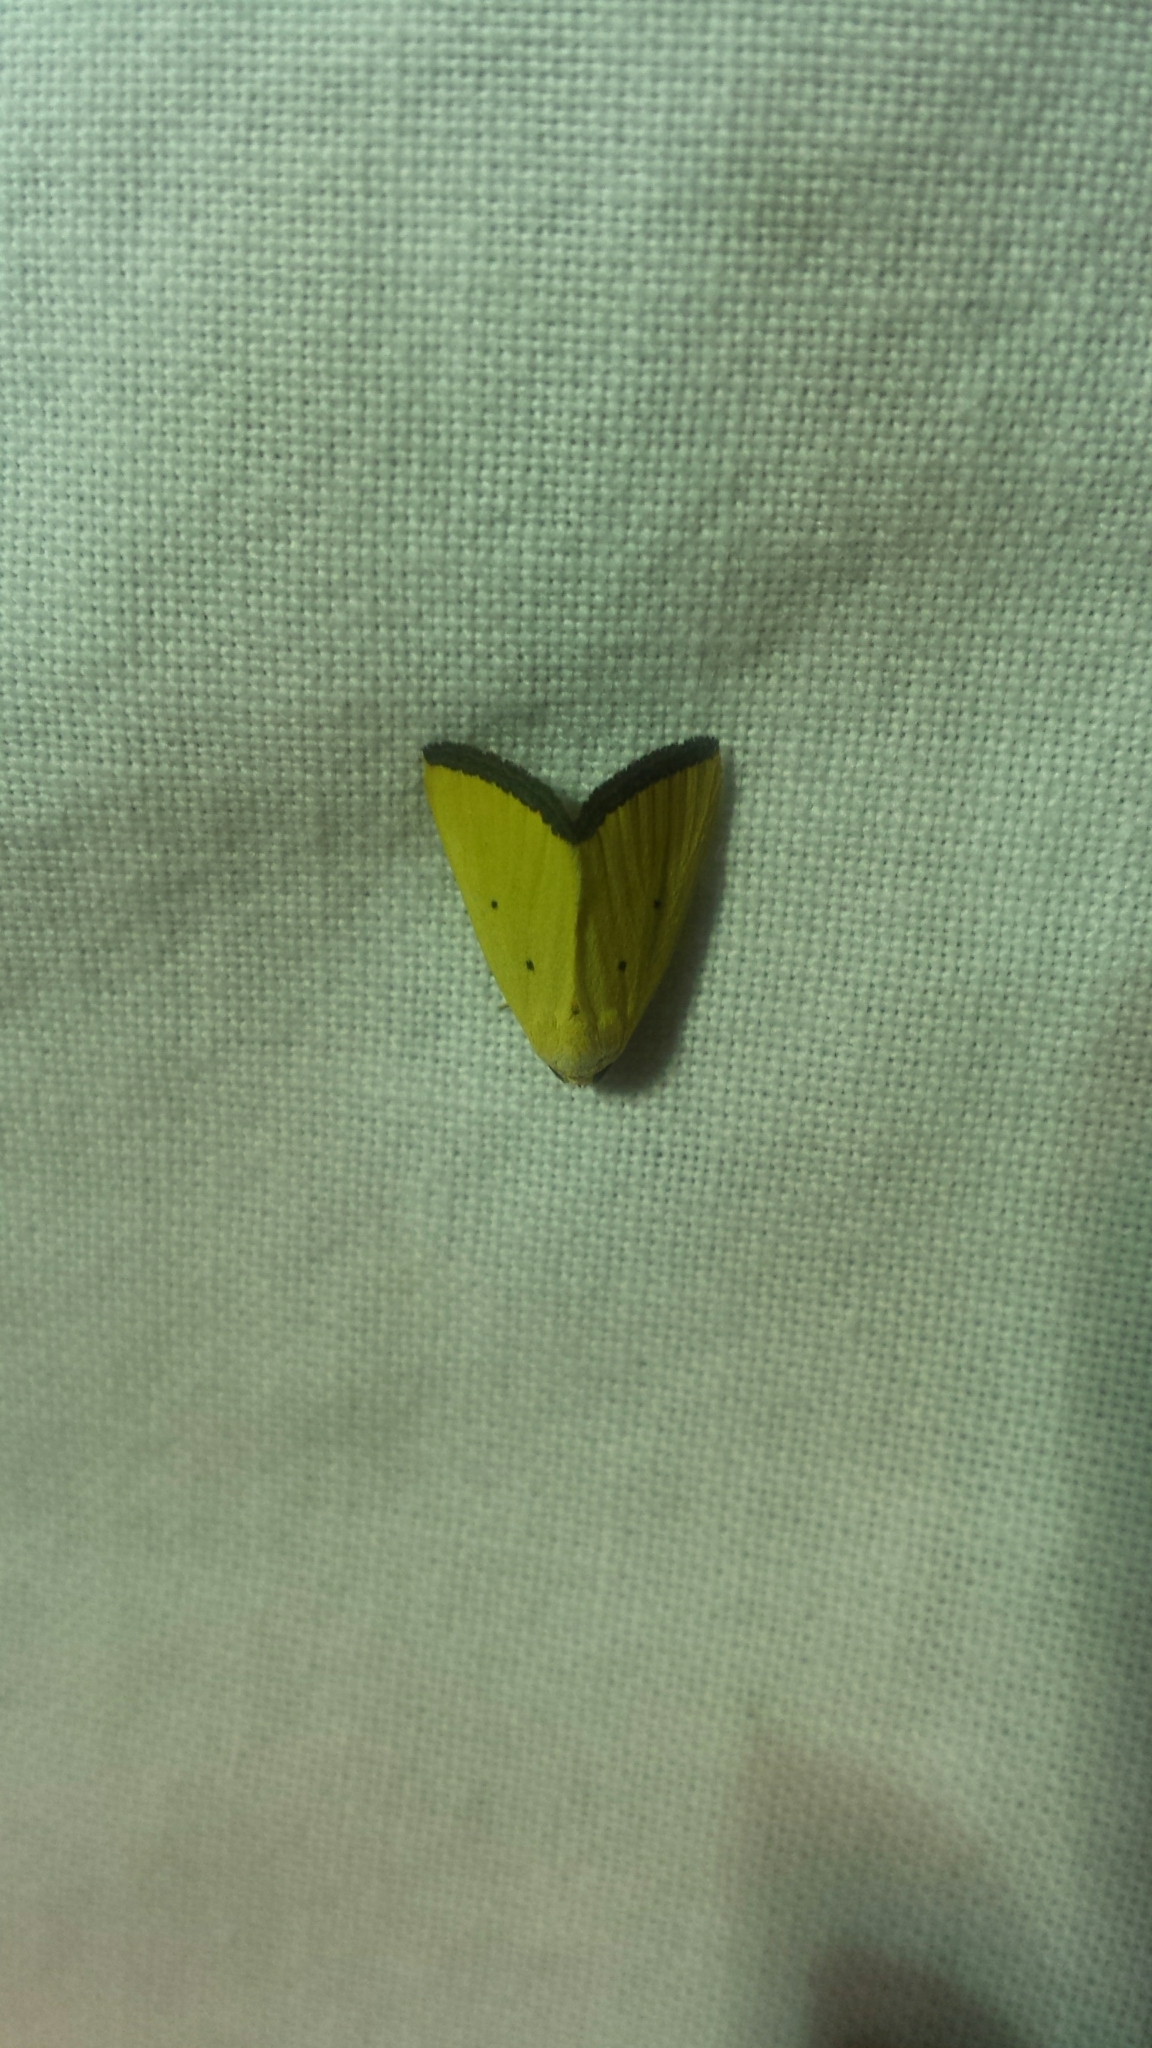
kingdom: Animalia
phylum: Arthropoda
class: Insecta
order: Lepidoptera
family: Noctuidae
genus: Marimatha
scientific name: Marimatha nigrofimbria
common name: Black-bordered lemon moth
